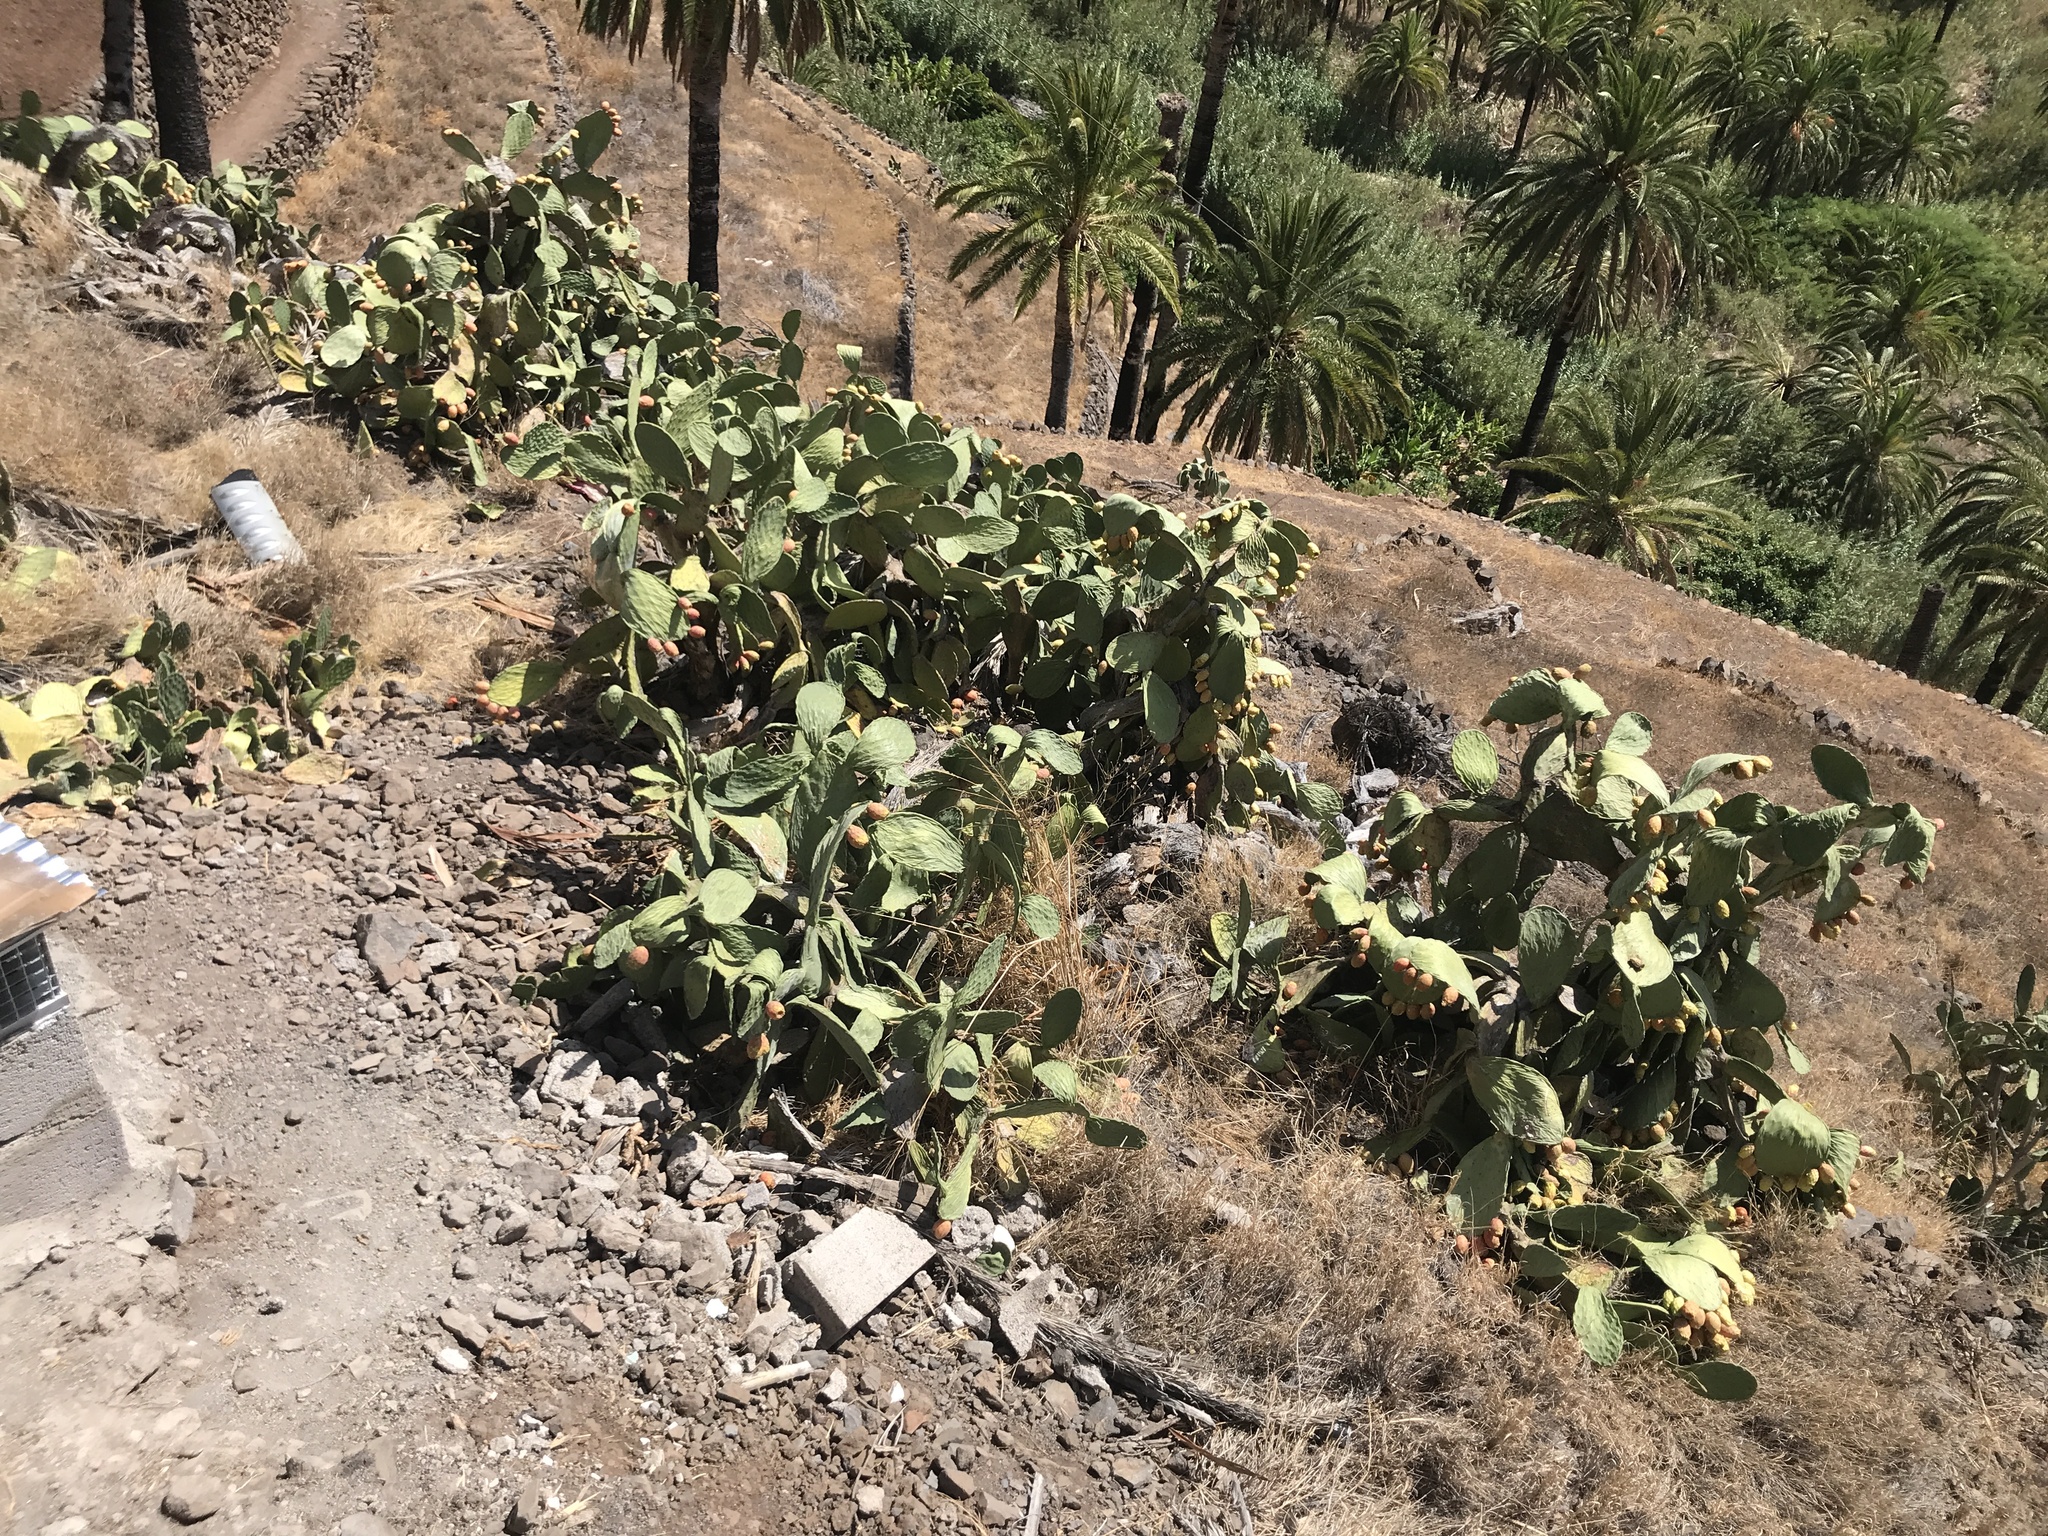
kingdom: Plantae
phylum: Tracheophyta
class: Magnoliopsida
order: Caryophyllales
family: Cactaceae
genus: Opuntia
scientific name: Opuntia ficus-indica
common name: Barbary fig
